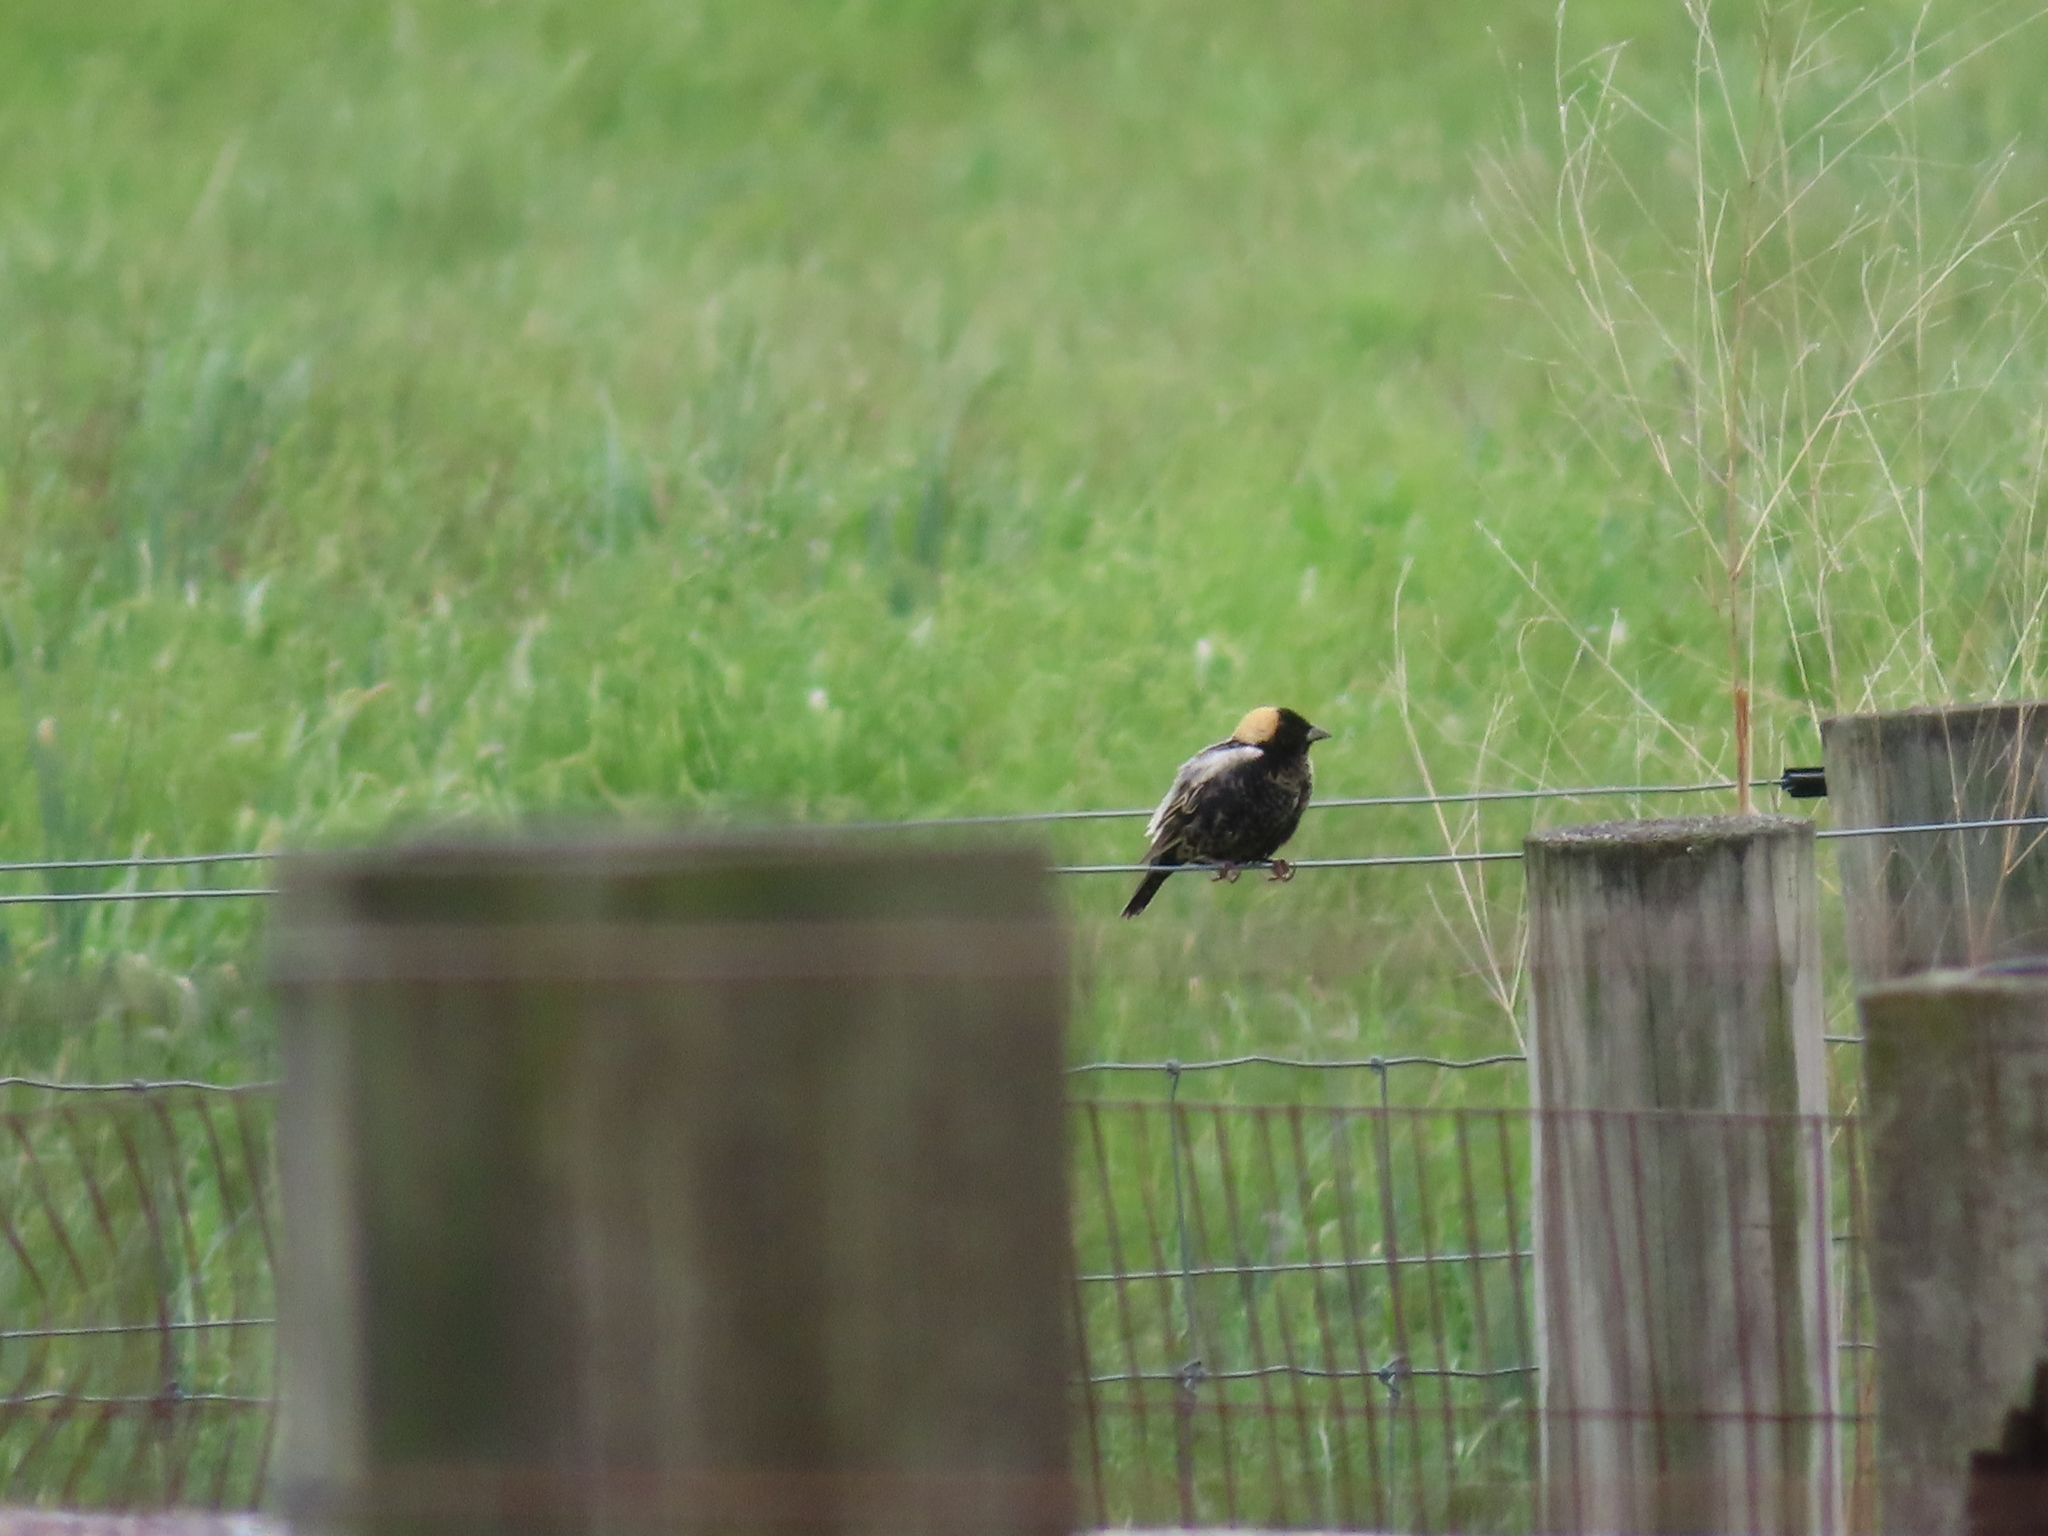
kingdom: Animalia
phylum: Chordata
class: Aves
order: Passeriformes
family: Icteridae
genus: Dolichonyx
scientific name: Dolichonyx oryzivorus
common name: Bobolink
